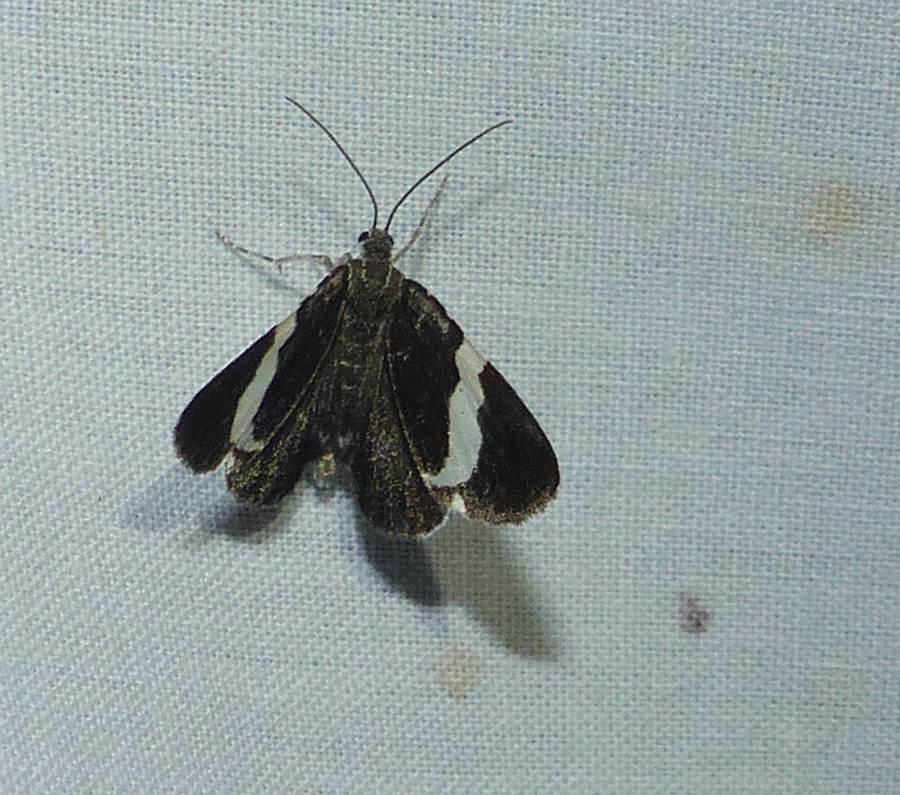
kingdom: Animalia
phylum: Arthropoda
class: Insecta
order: Lepidoptera
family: Geometridae
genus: Trichodezia
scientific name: Trichodezia albovittata
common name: White striped black
